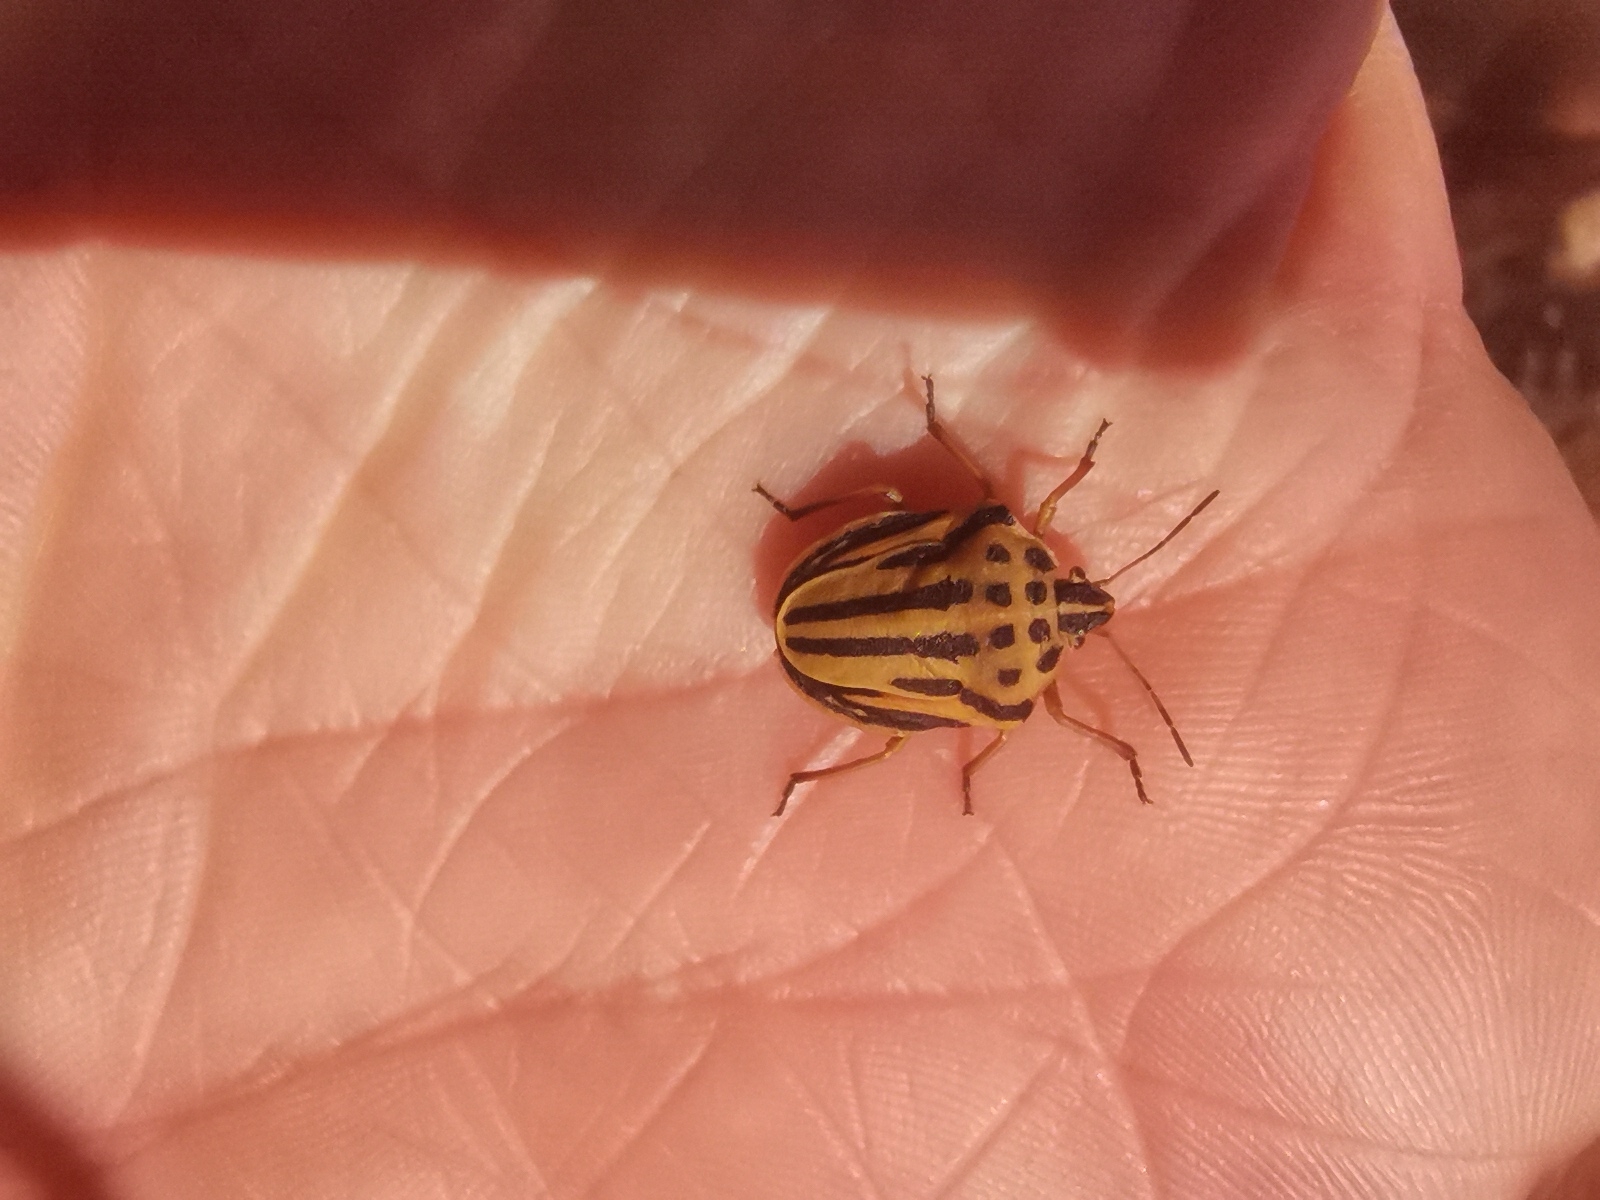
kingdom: Animalia
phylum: Arthropoda
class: Insecta
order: Hemiptera
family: Pentatomidae
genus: Graphosoma
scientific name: Graphosoma semipunctatum
